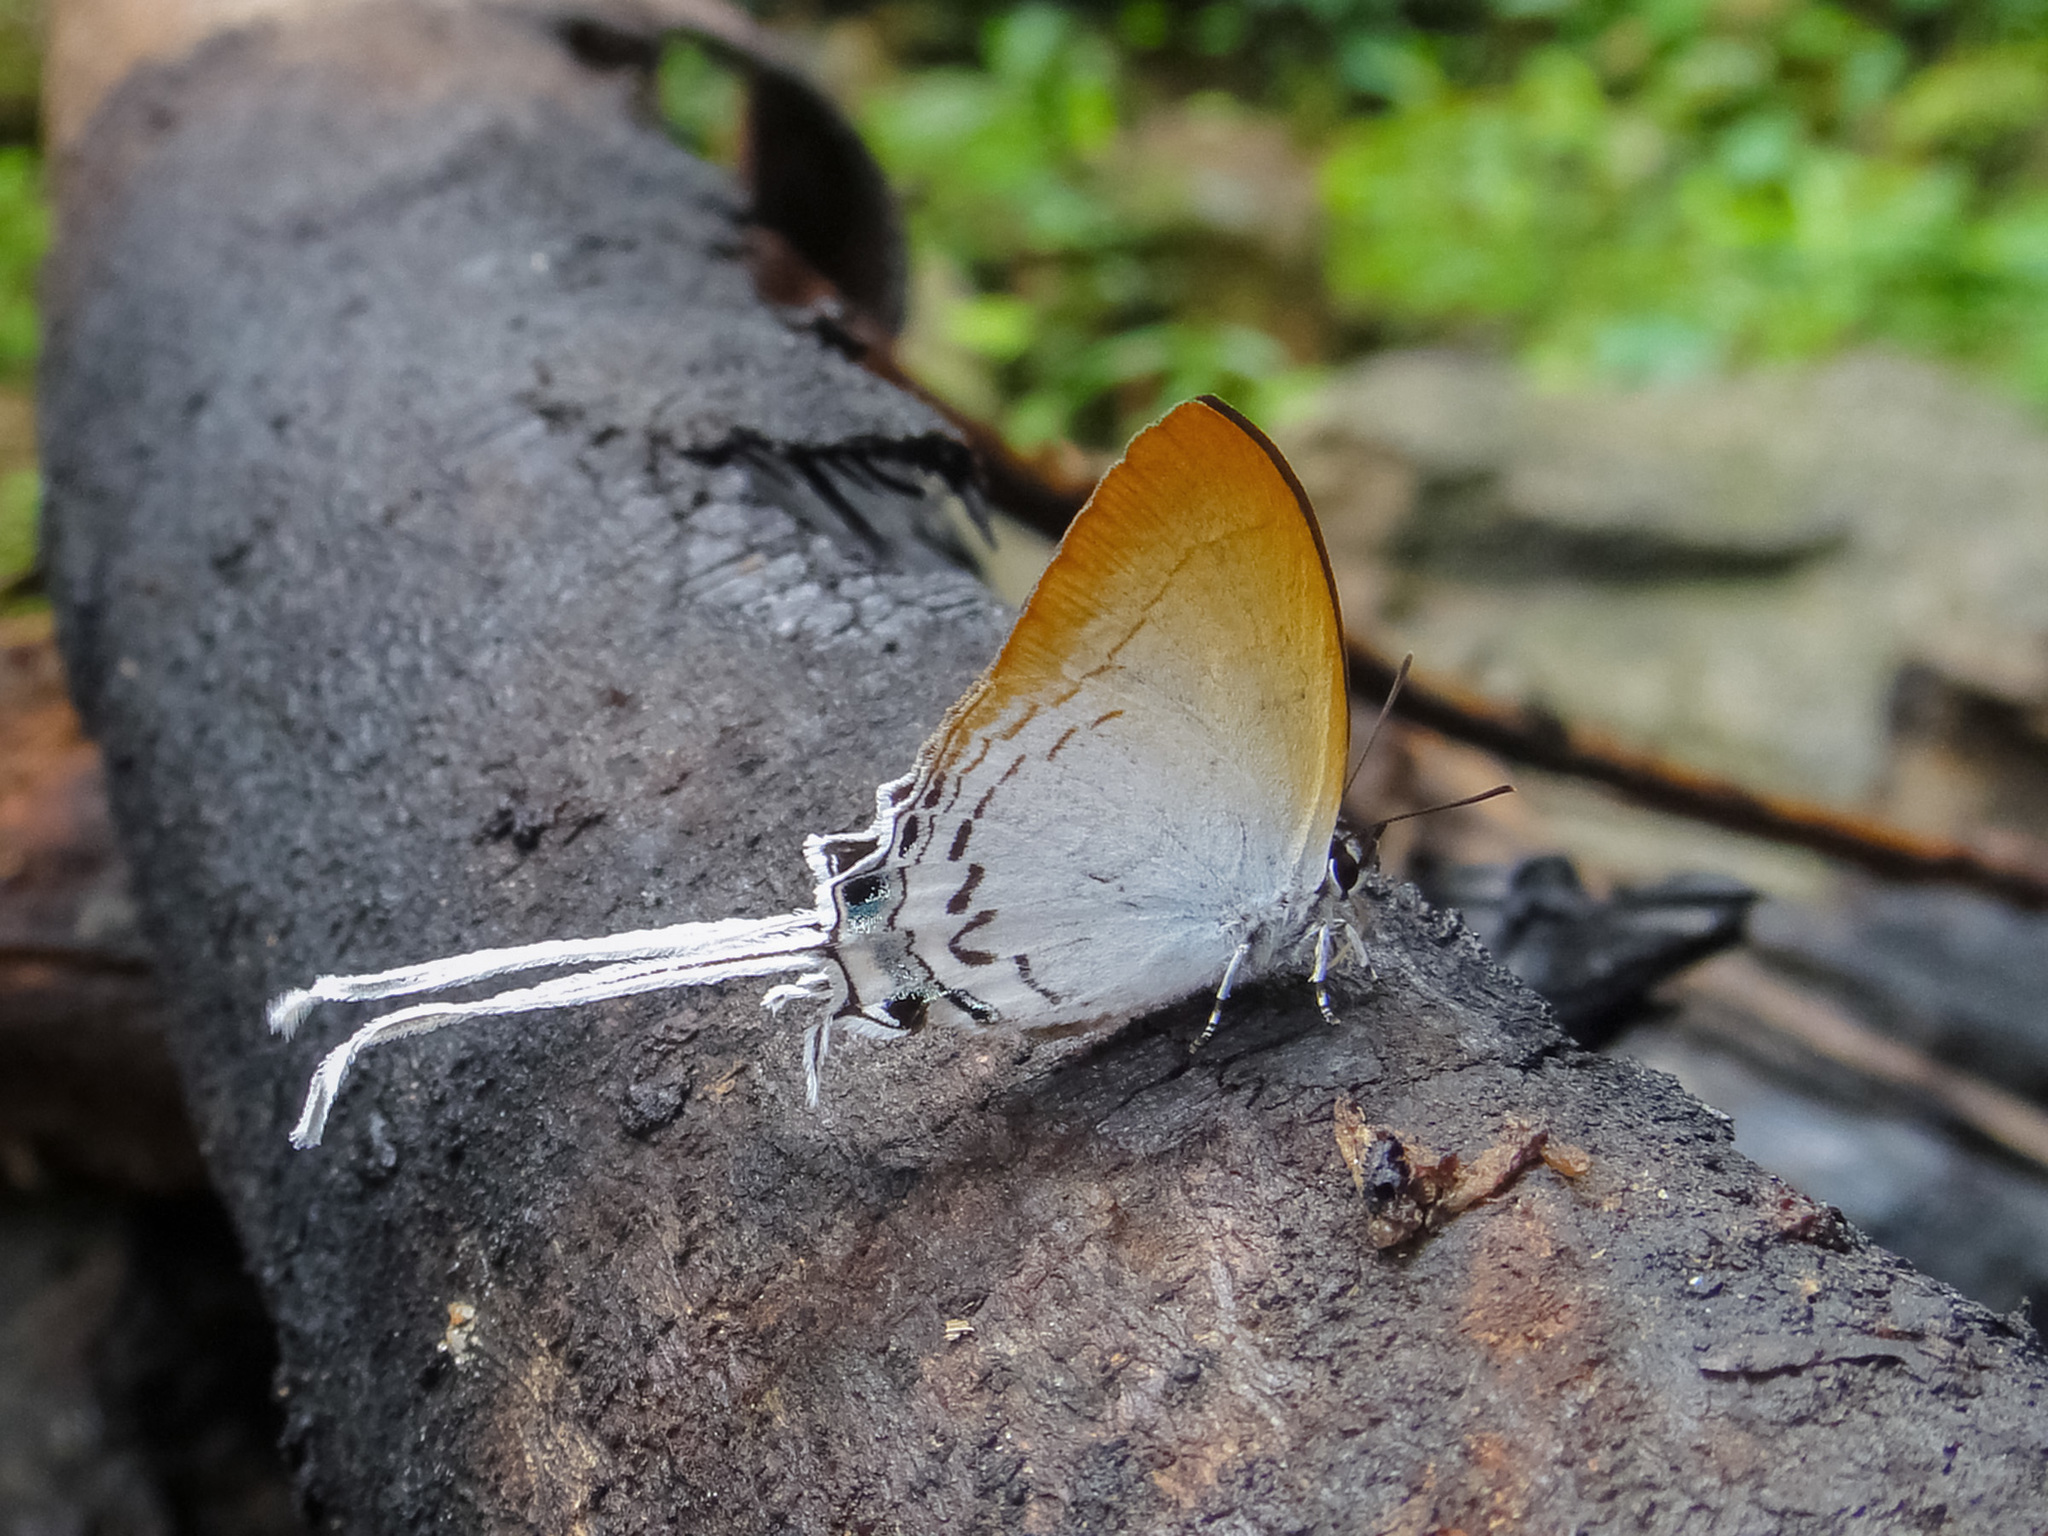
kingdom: Animalia
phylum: Arthropoda
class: Insecta
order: Lepidoptera
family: Lycaenidae
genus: Cheritra
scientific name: Cheritra freja
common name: Common imperial
